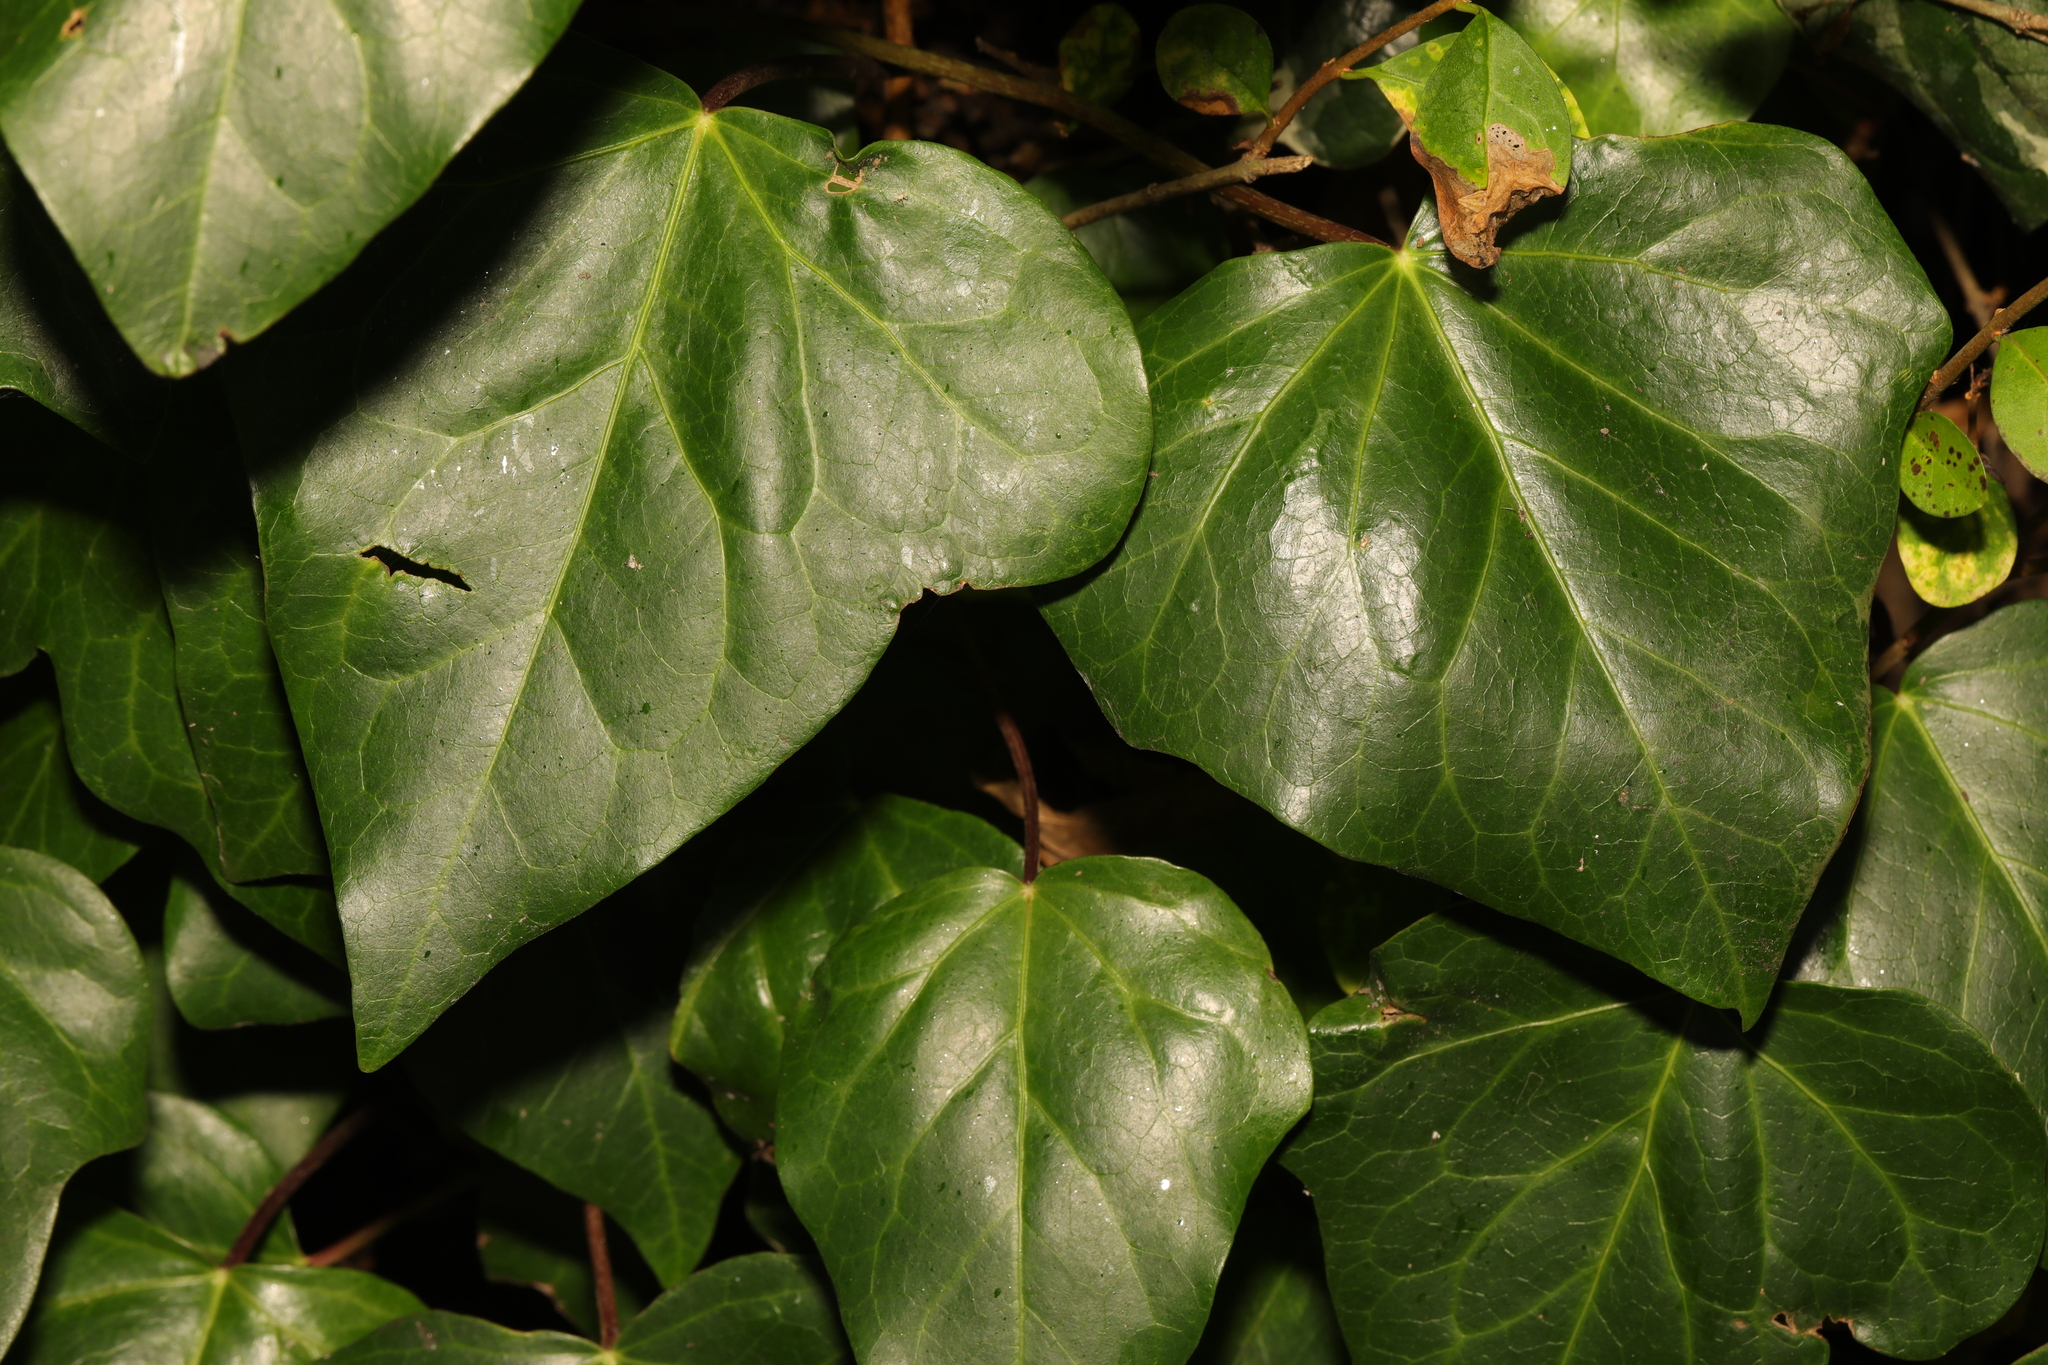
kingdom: Plantae
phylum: Tracheophyta
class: Magnoliopsida
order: Apiales
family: Araliaceae
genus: Hedera
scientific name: Hedera colchica
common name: Persian ivy
